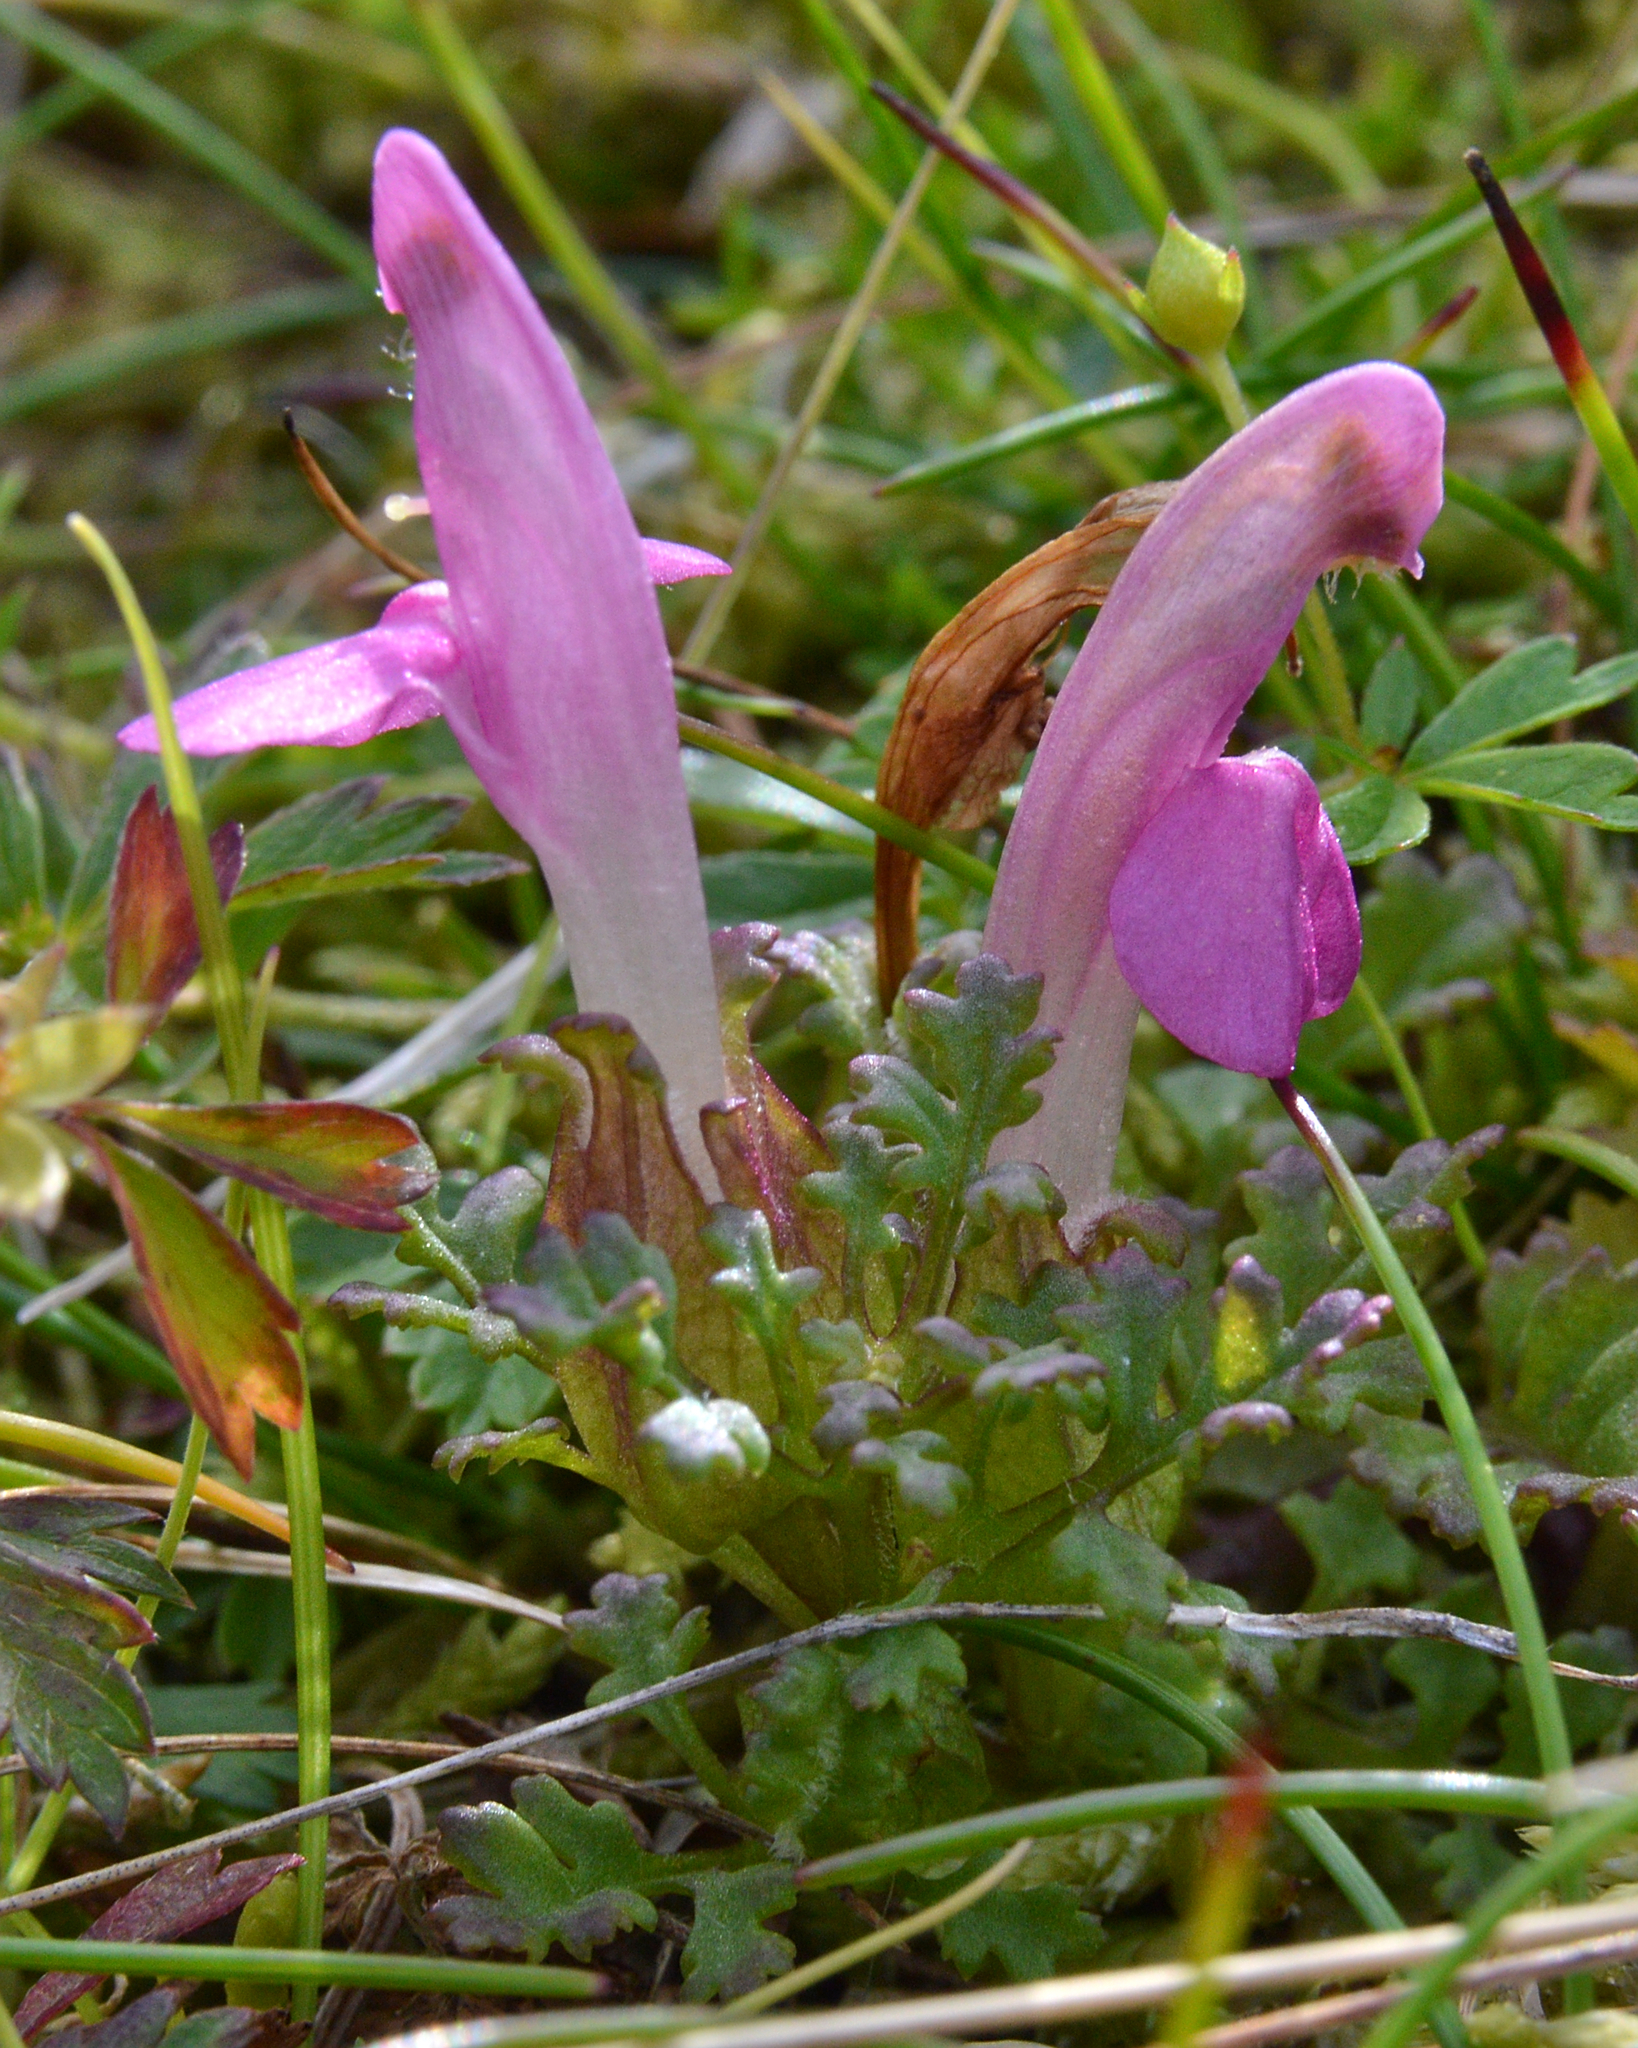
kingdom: Plantae
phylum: Tracheophyta
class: Magnoliopsida
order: Lamiales
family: Orobanchaceae
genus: Pedicularis
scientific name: Pedicularis sylvatica
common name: Lousewort
